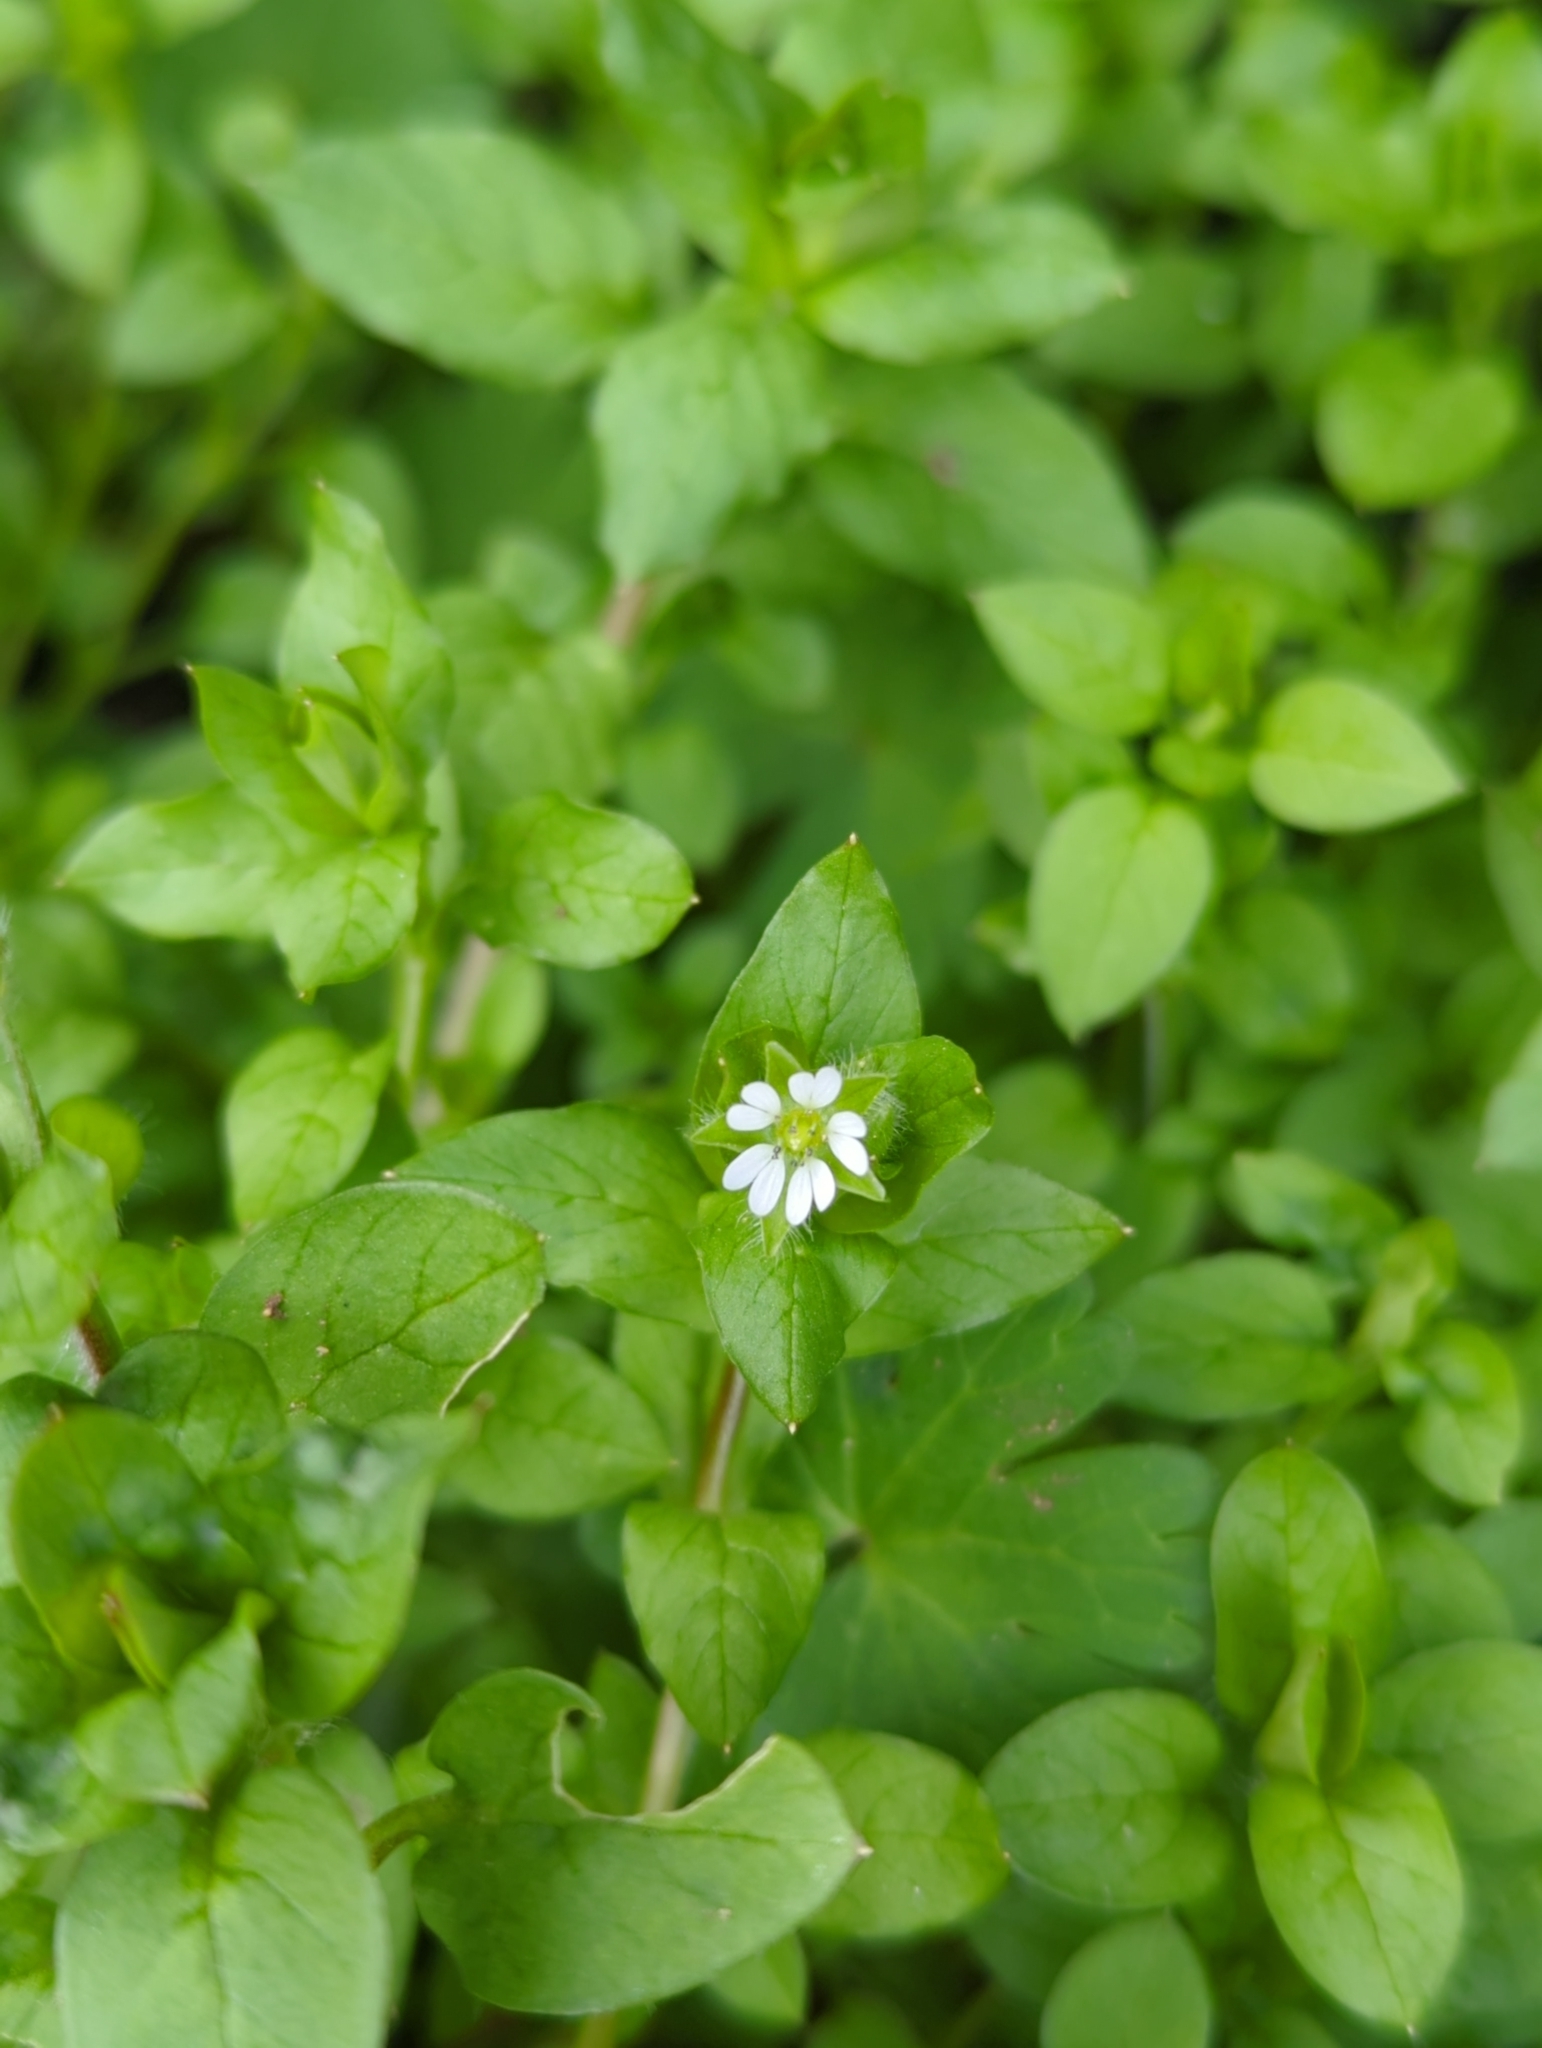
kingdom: Plantae
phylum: Tracheophyta
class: Magnoliopsida
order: Caryophyllales
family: Caryophyllaceae
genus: Stellaria
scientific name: Stellaria media
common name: Common chickweed
